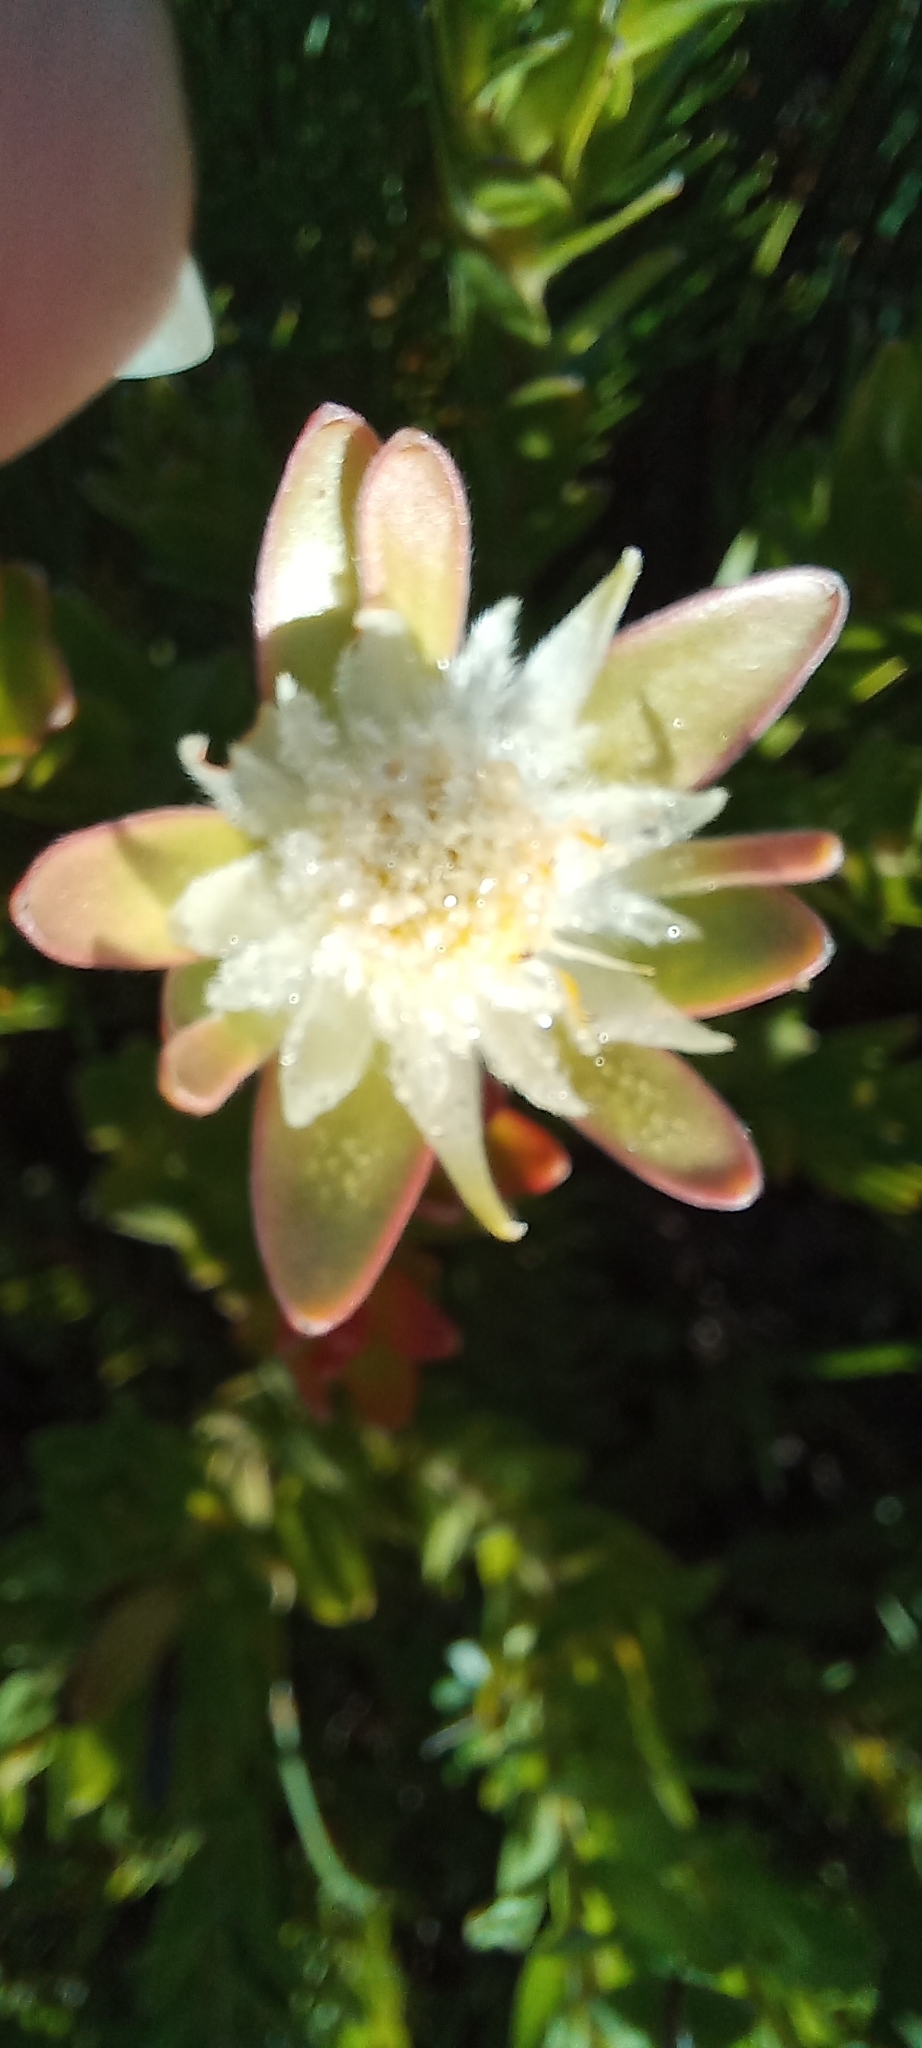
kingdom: Plantae
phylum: Tracheophyta
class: Magnoliopsida
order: Proteales
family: Proteaceae
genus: Diastella
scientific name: Diastella thymelaeoides
